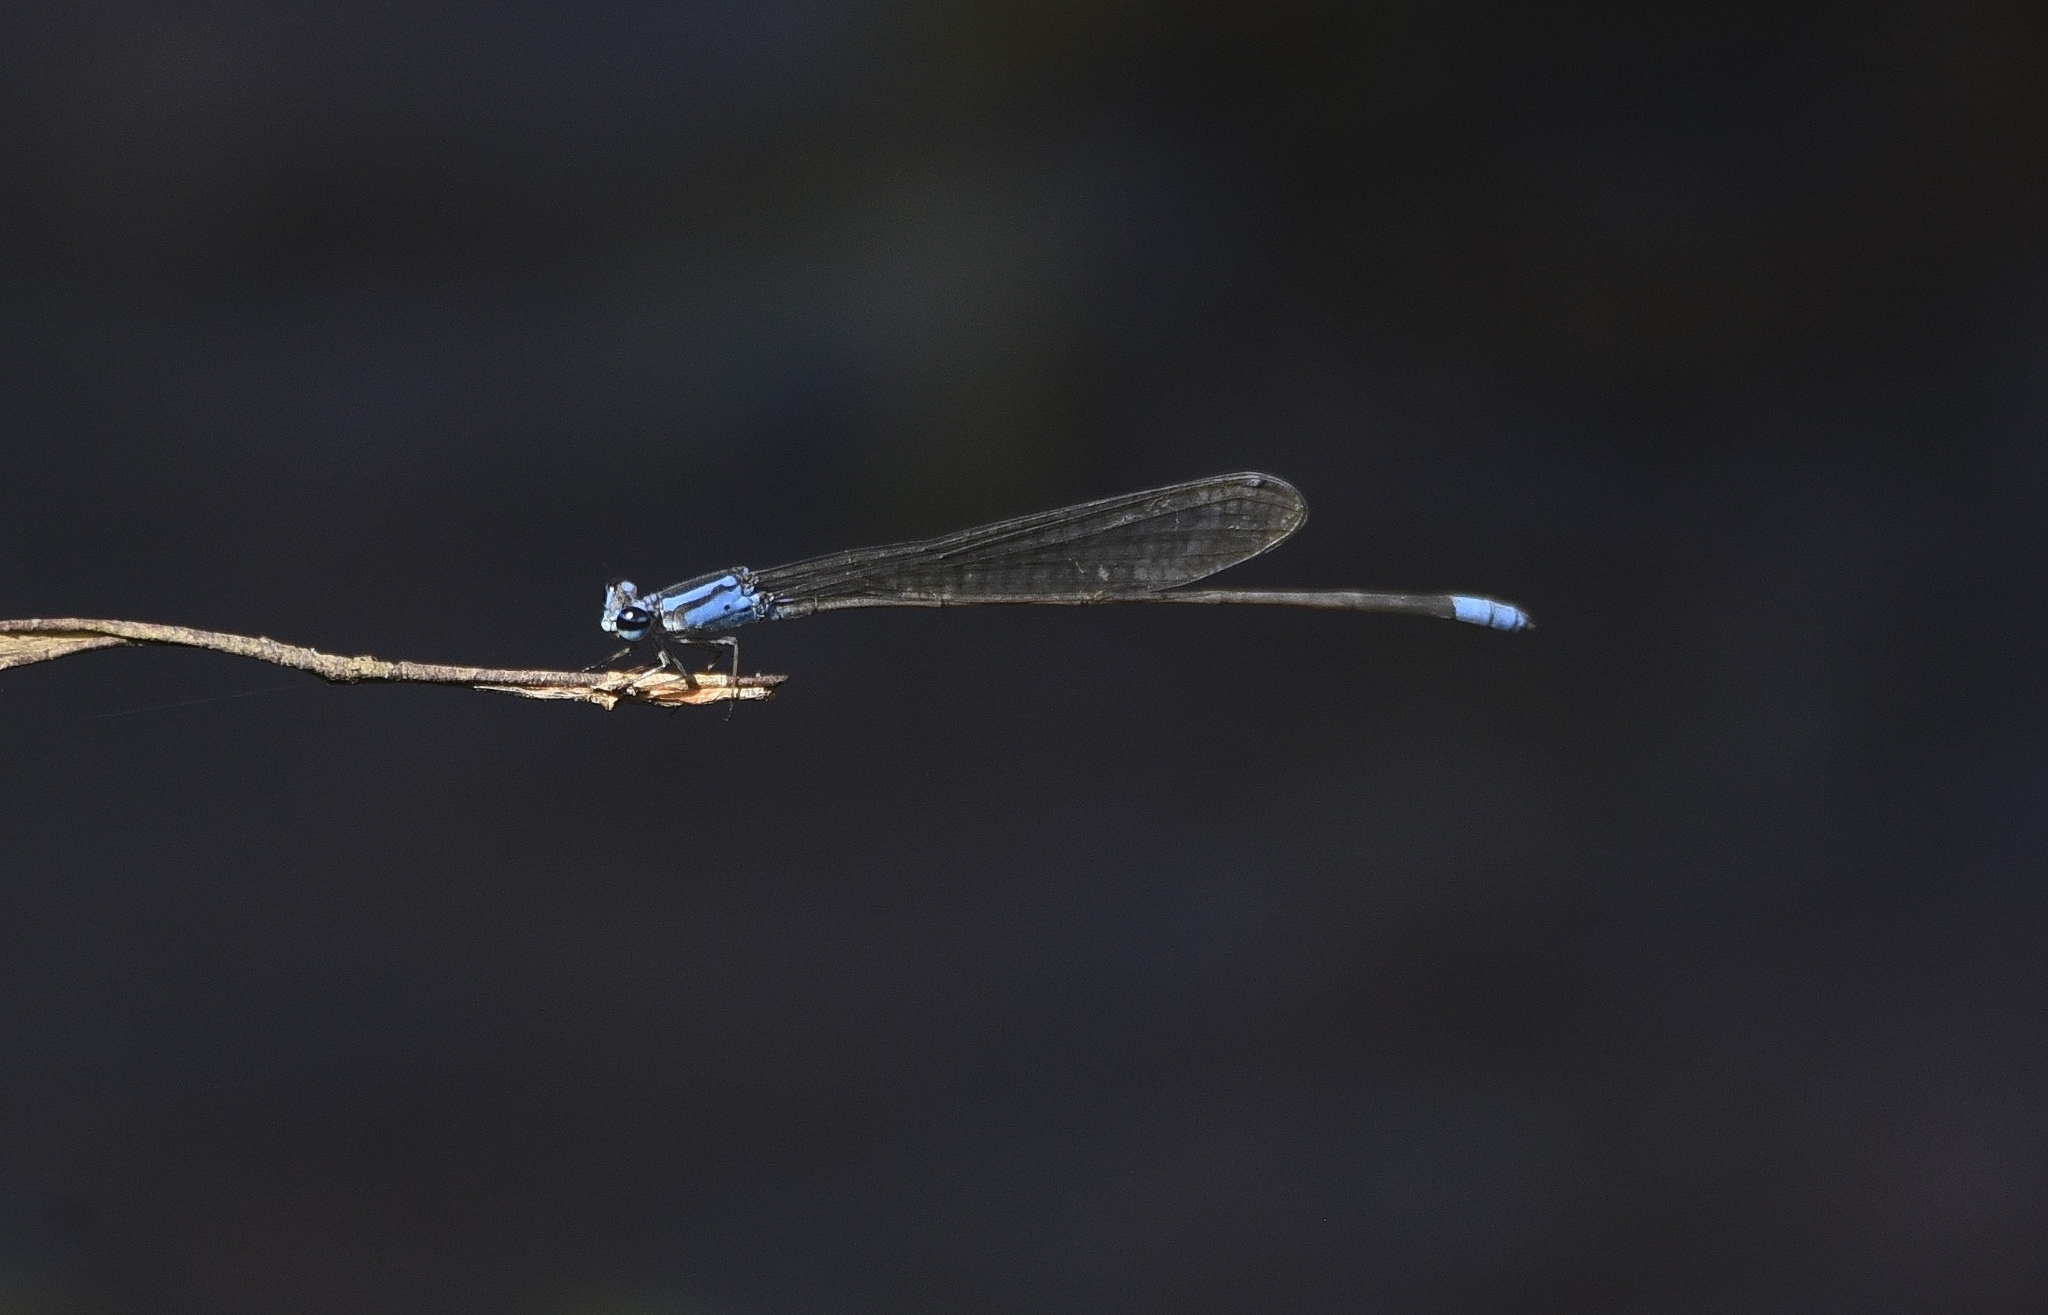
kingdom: Animalia
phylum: Arthropoda
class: Insecta
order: Odonata
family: Coenagrionidae
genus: Archibasis
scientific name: Archibasis oscillans
